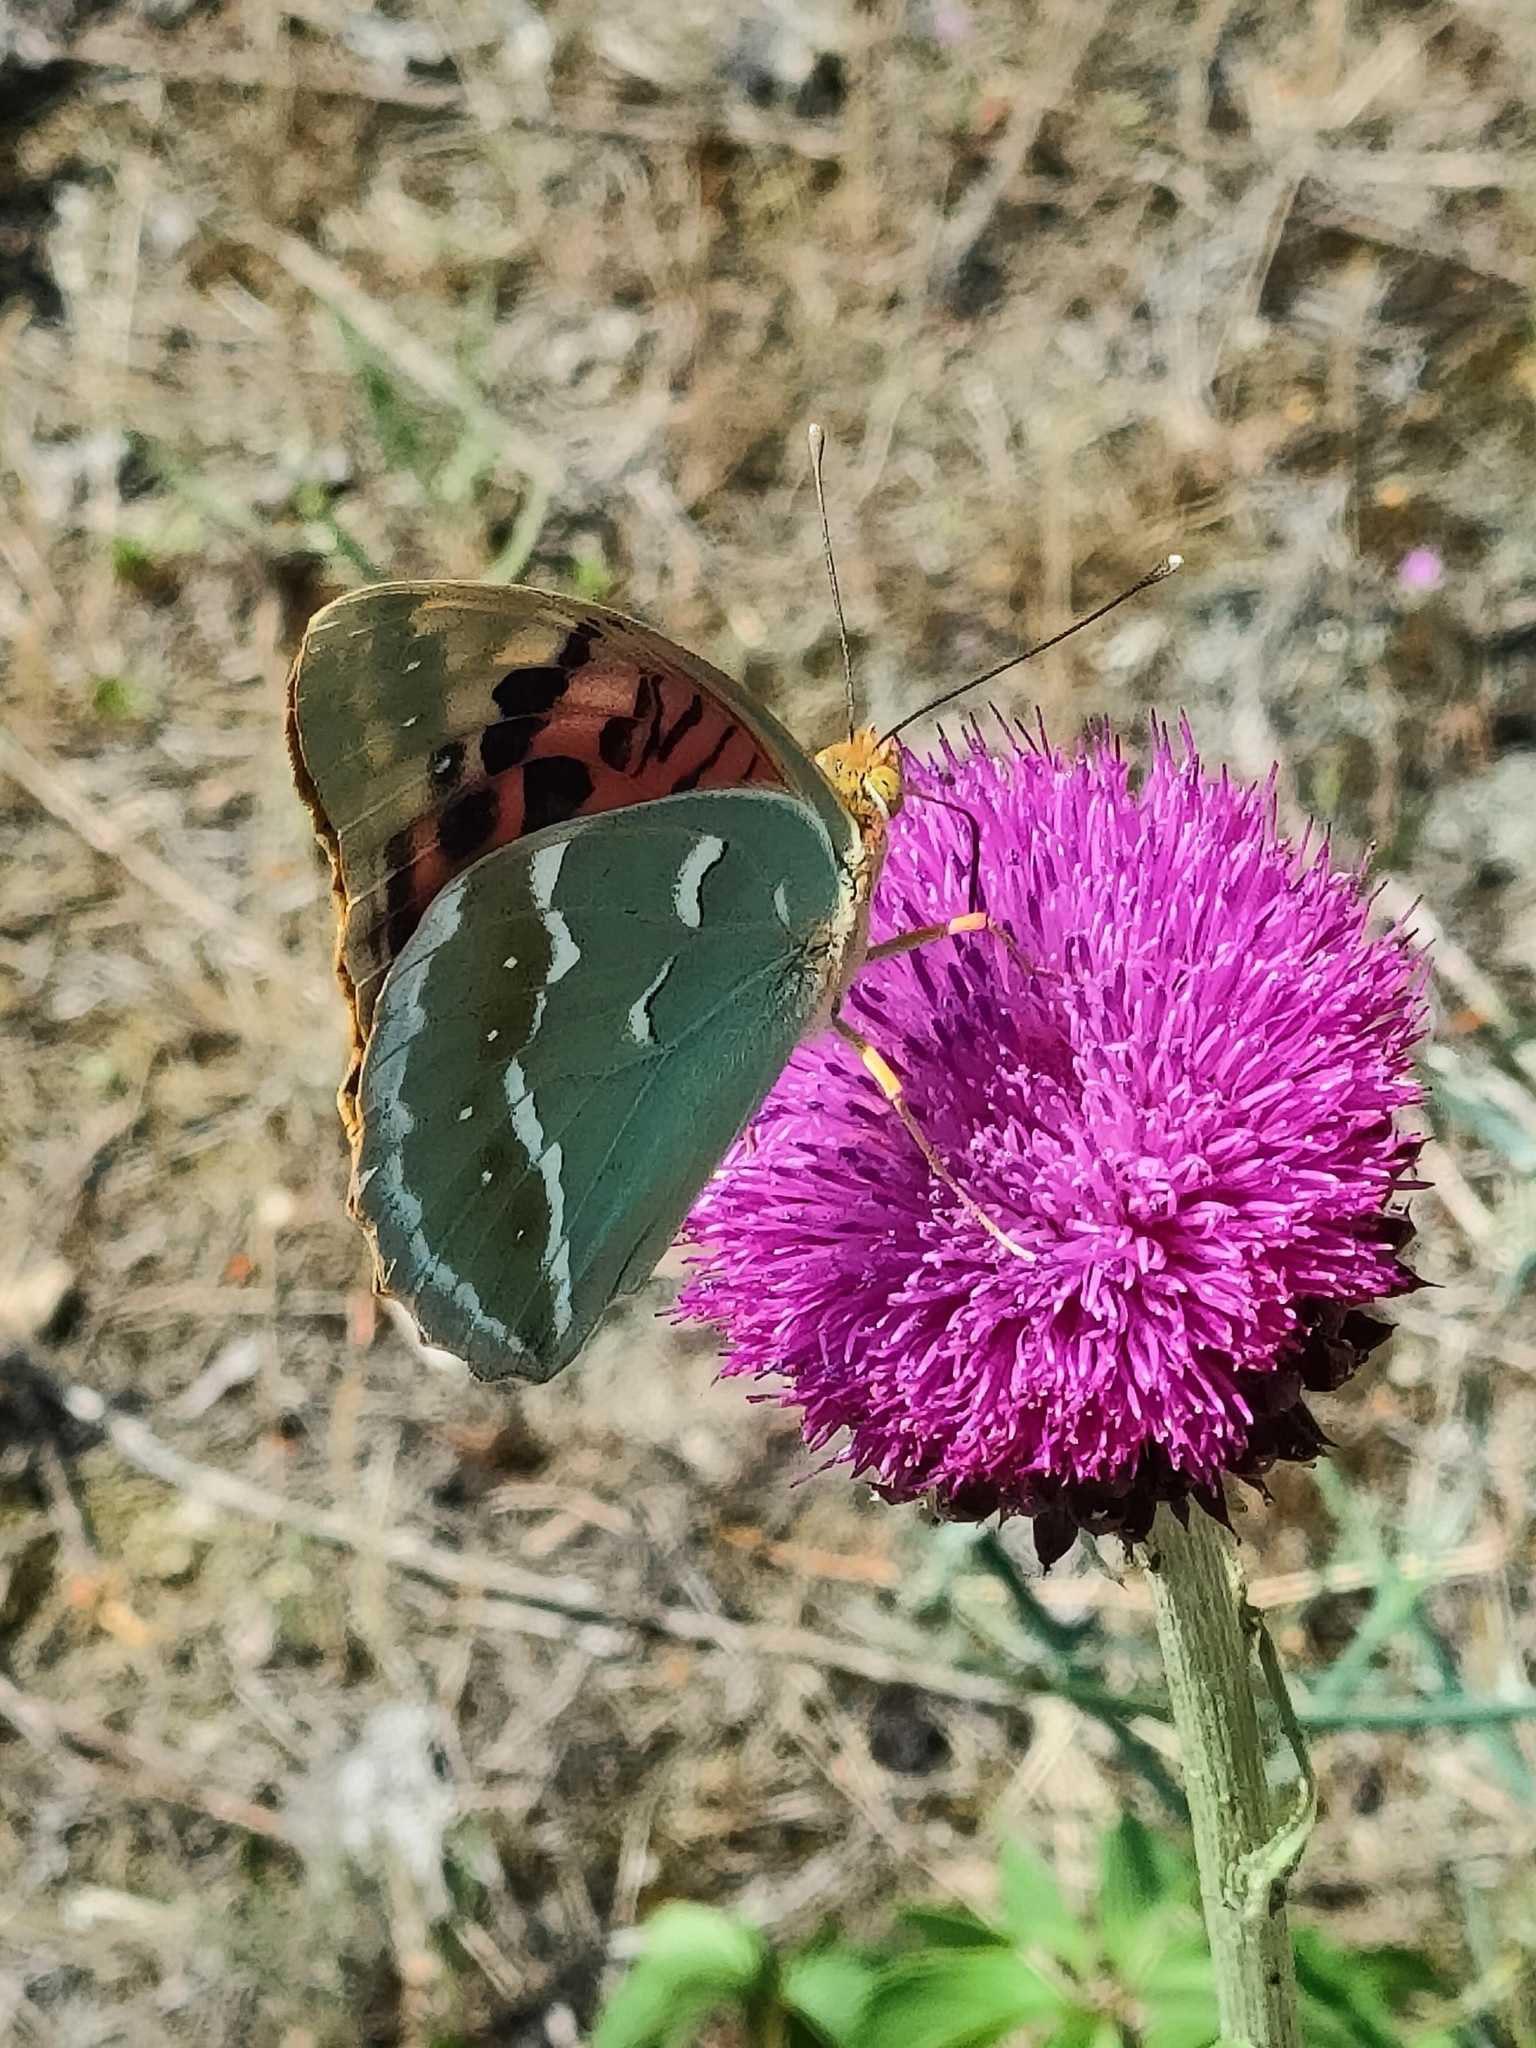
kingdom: Animalia
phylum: Arthropoda
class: Insecta
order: Lepidoptera
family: Nymphalidae
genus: Damora
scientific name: Damora pandora
